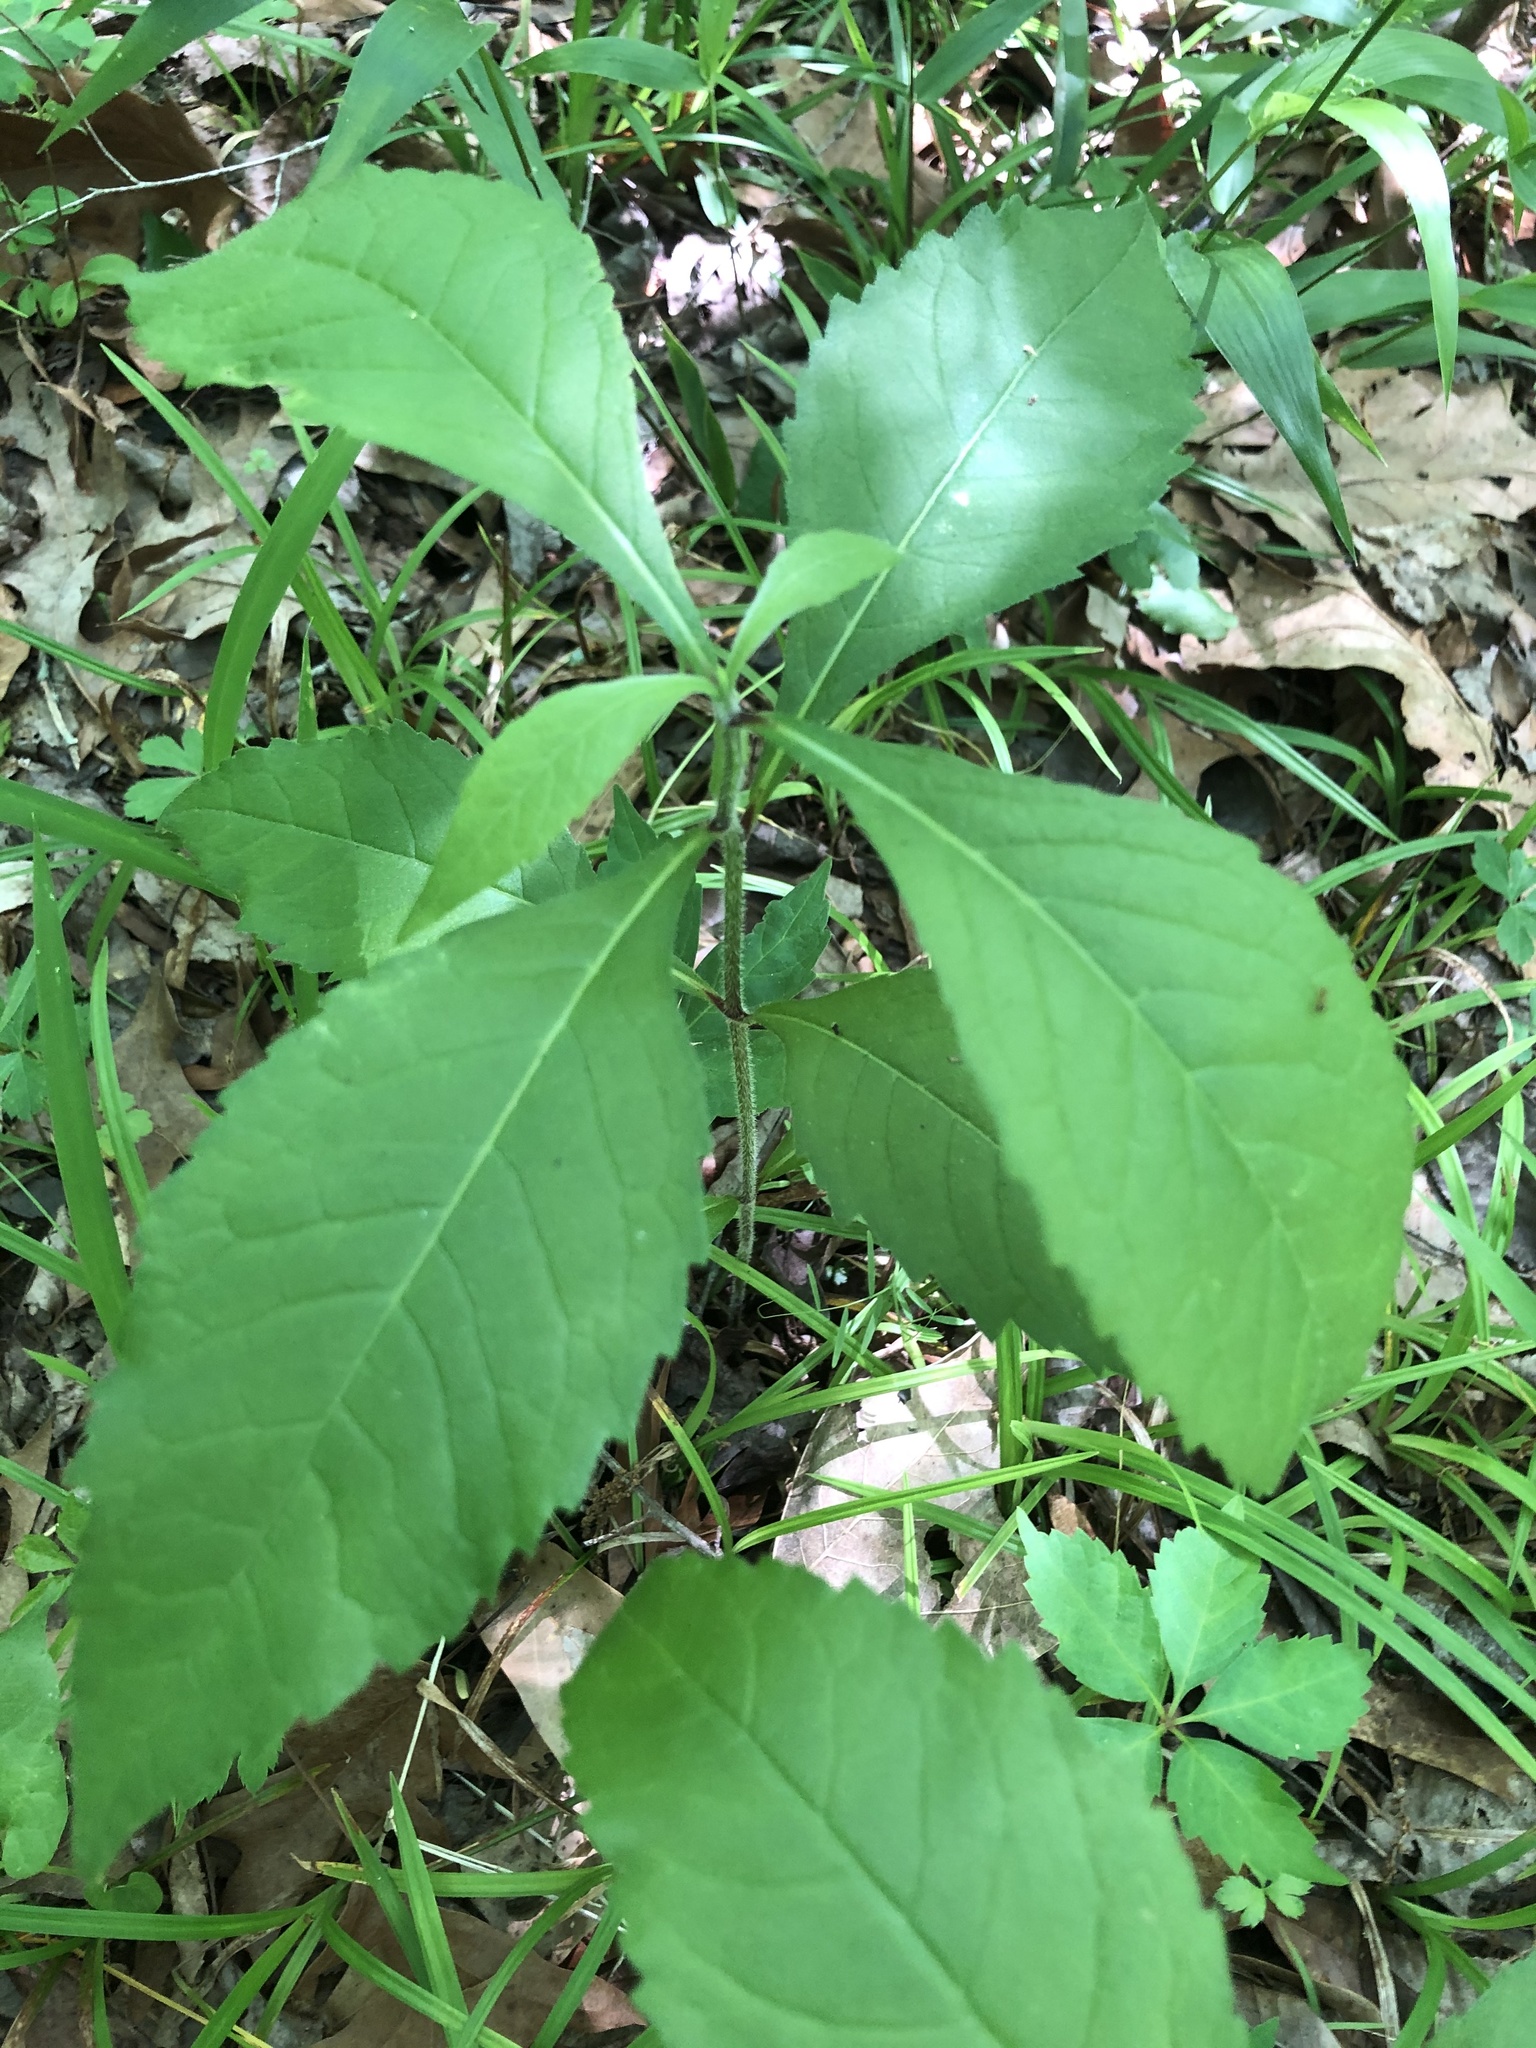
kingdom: Plantae
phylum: Tracheophyta
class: Magnoliopsida
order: Asterales
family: Asteraceae
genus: Verbesina
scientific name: Verbesina alternifolia
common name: Wingstem
